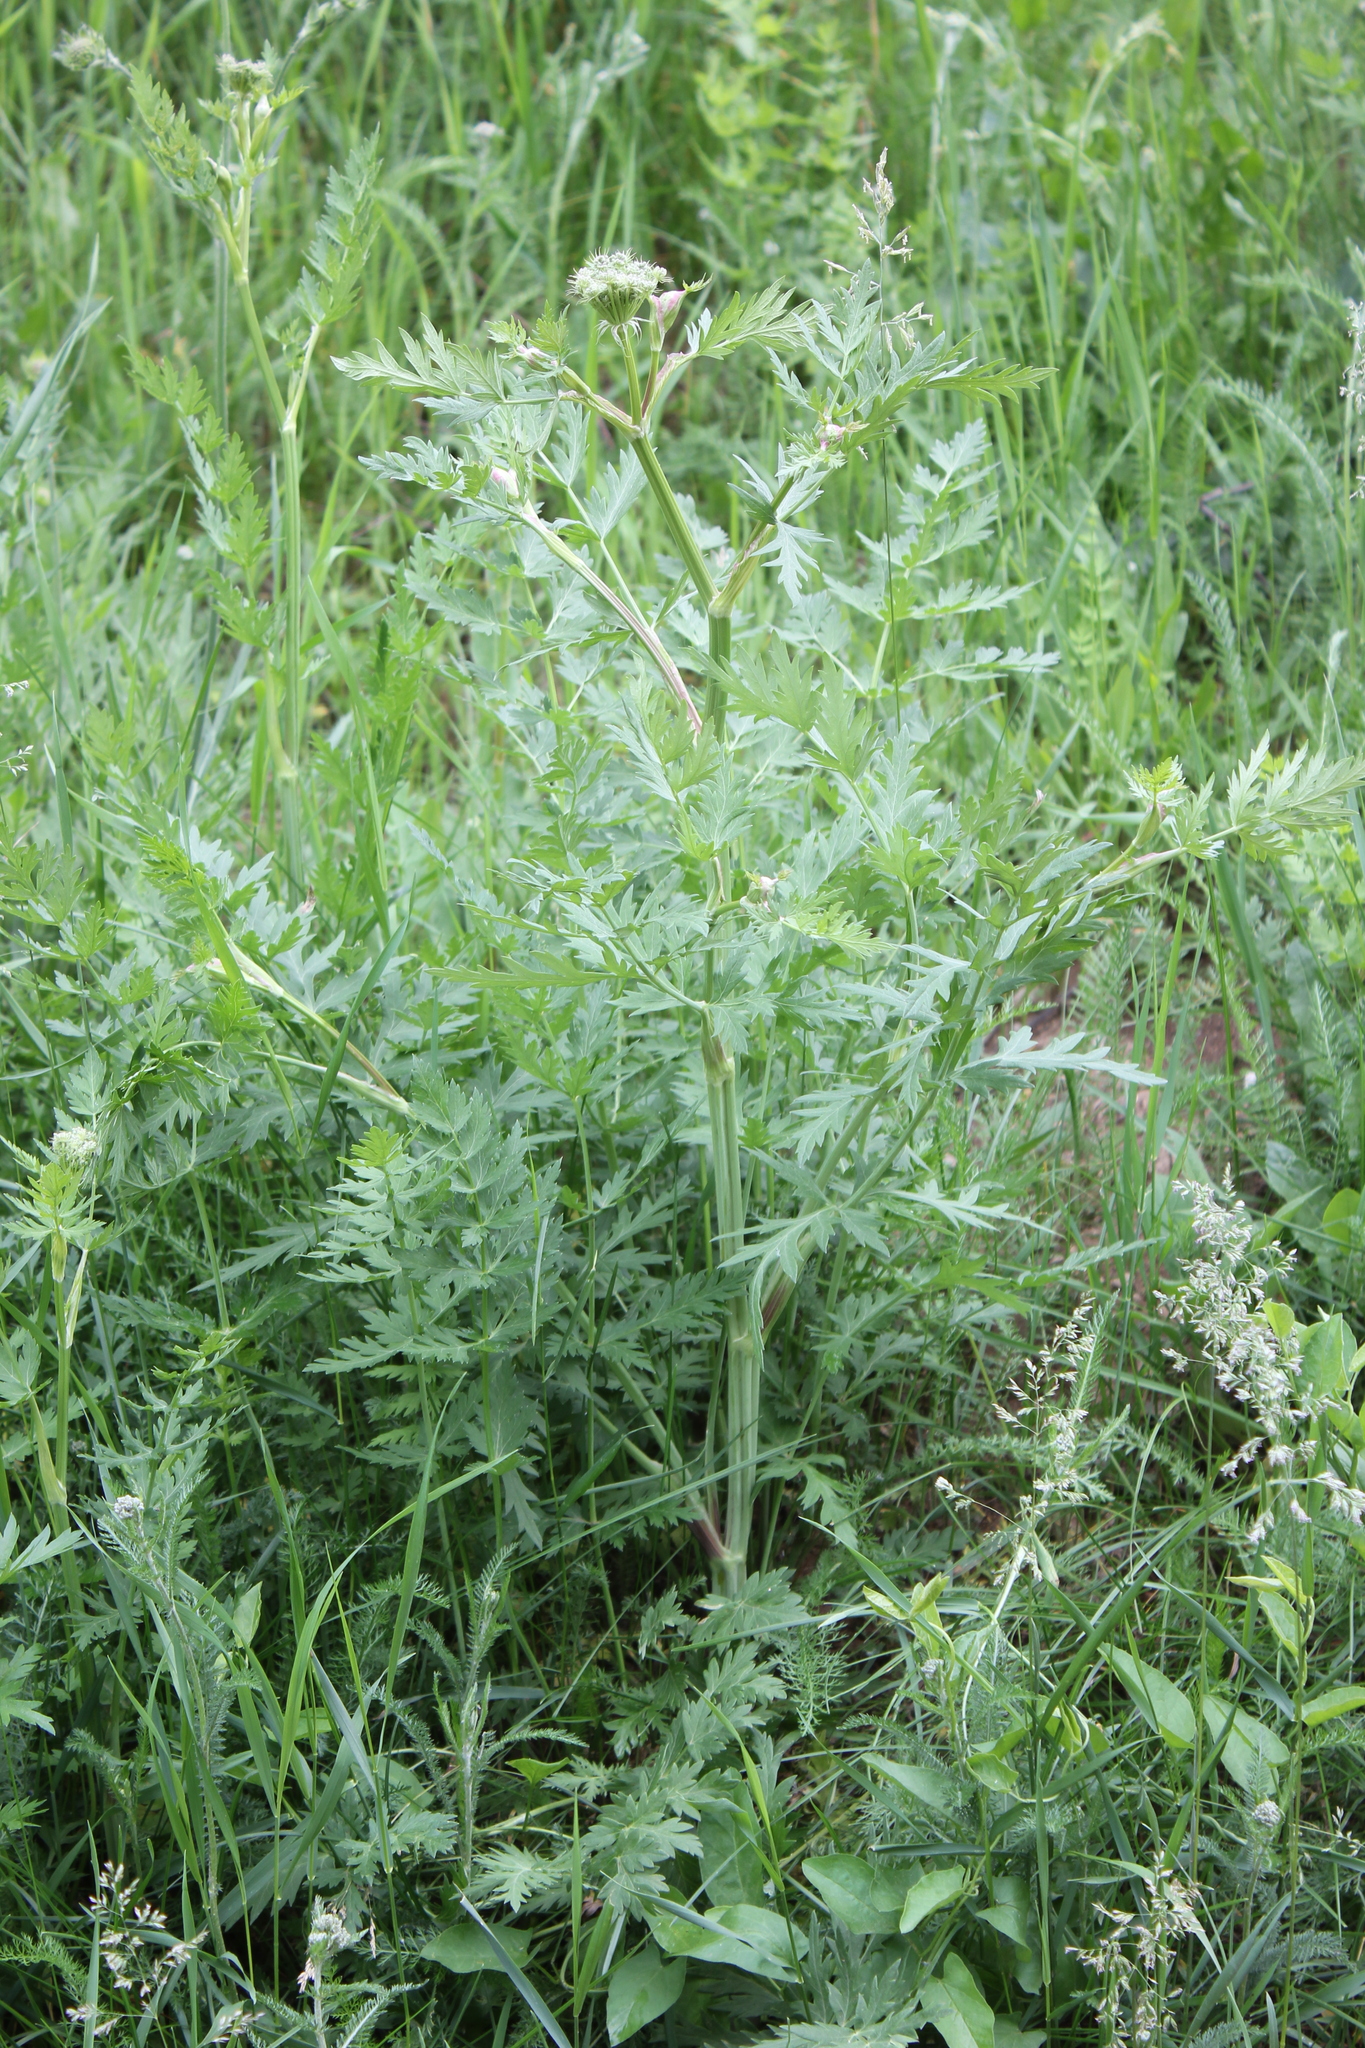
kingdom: Plantae
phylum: Tracheophyta
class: Magnoliopsida
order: Apiales
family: Apiaceae
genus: Seseli
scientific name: Seseli libanotis
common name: Mooncarrot
